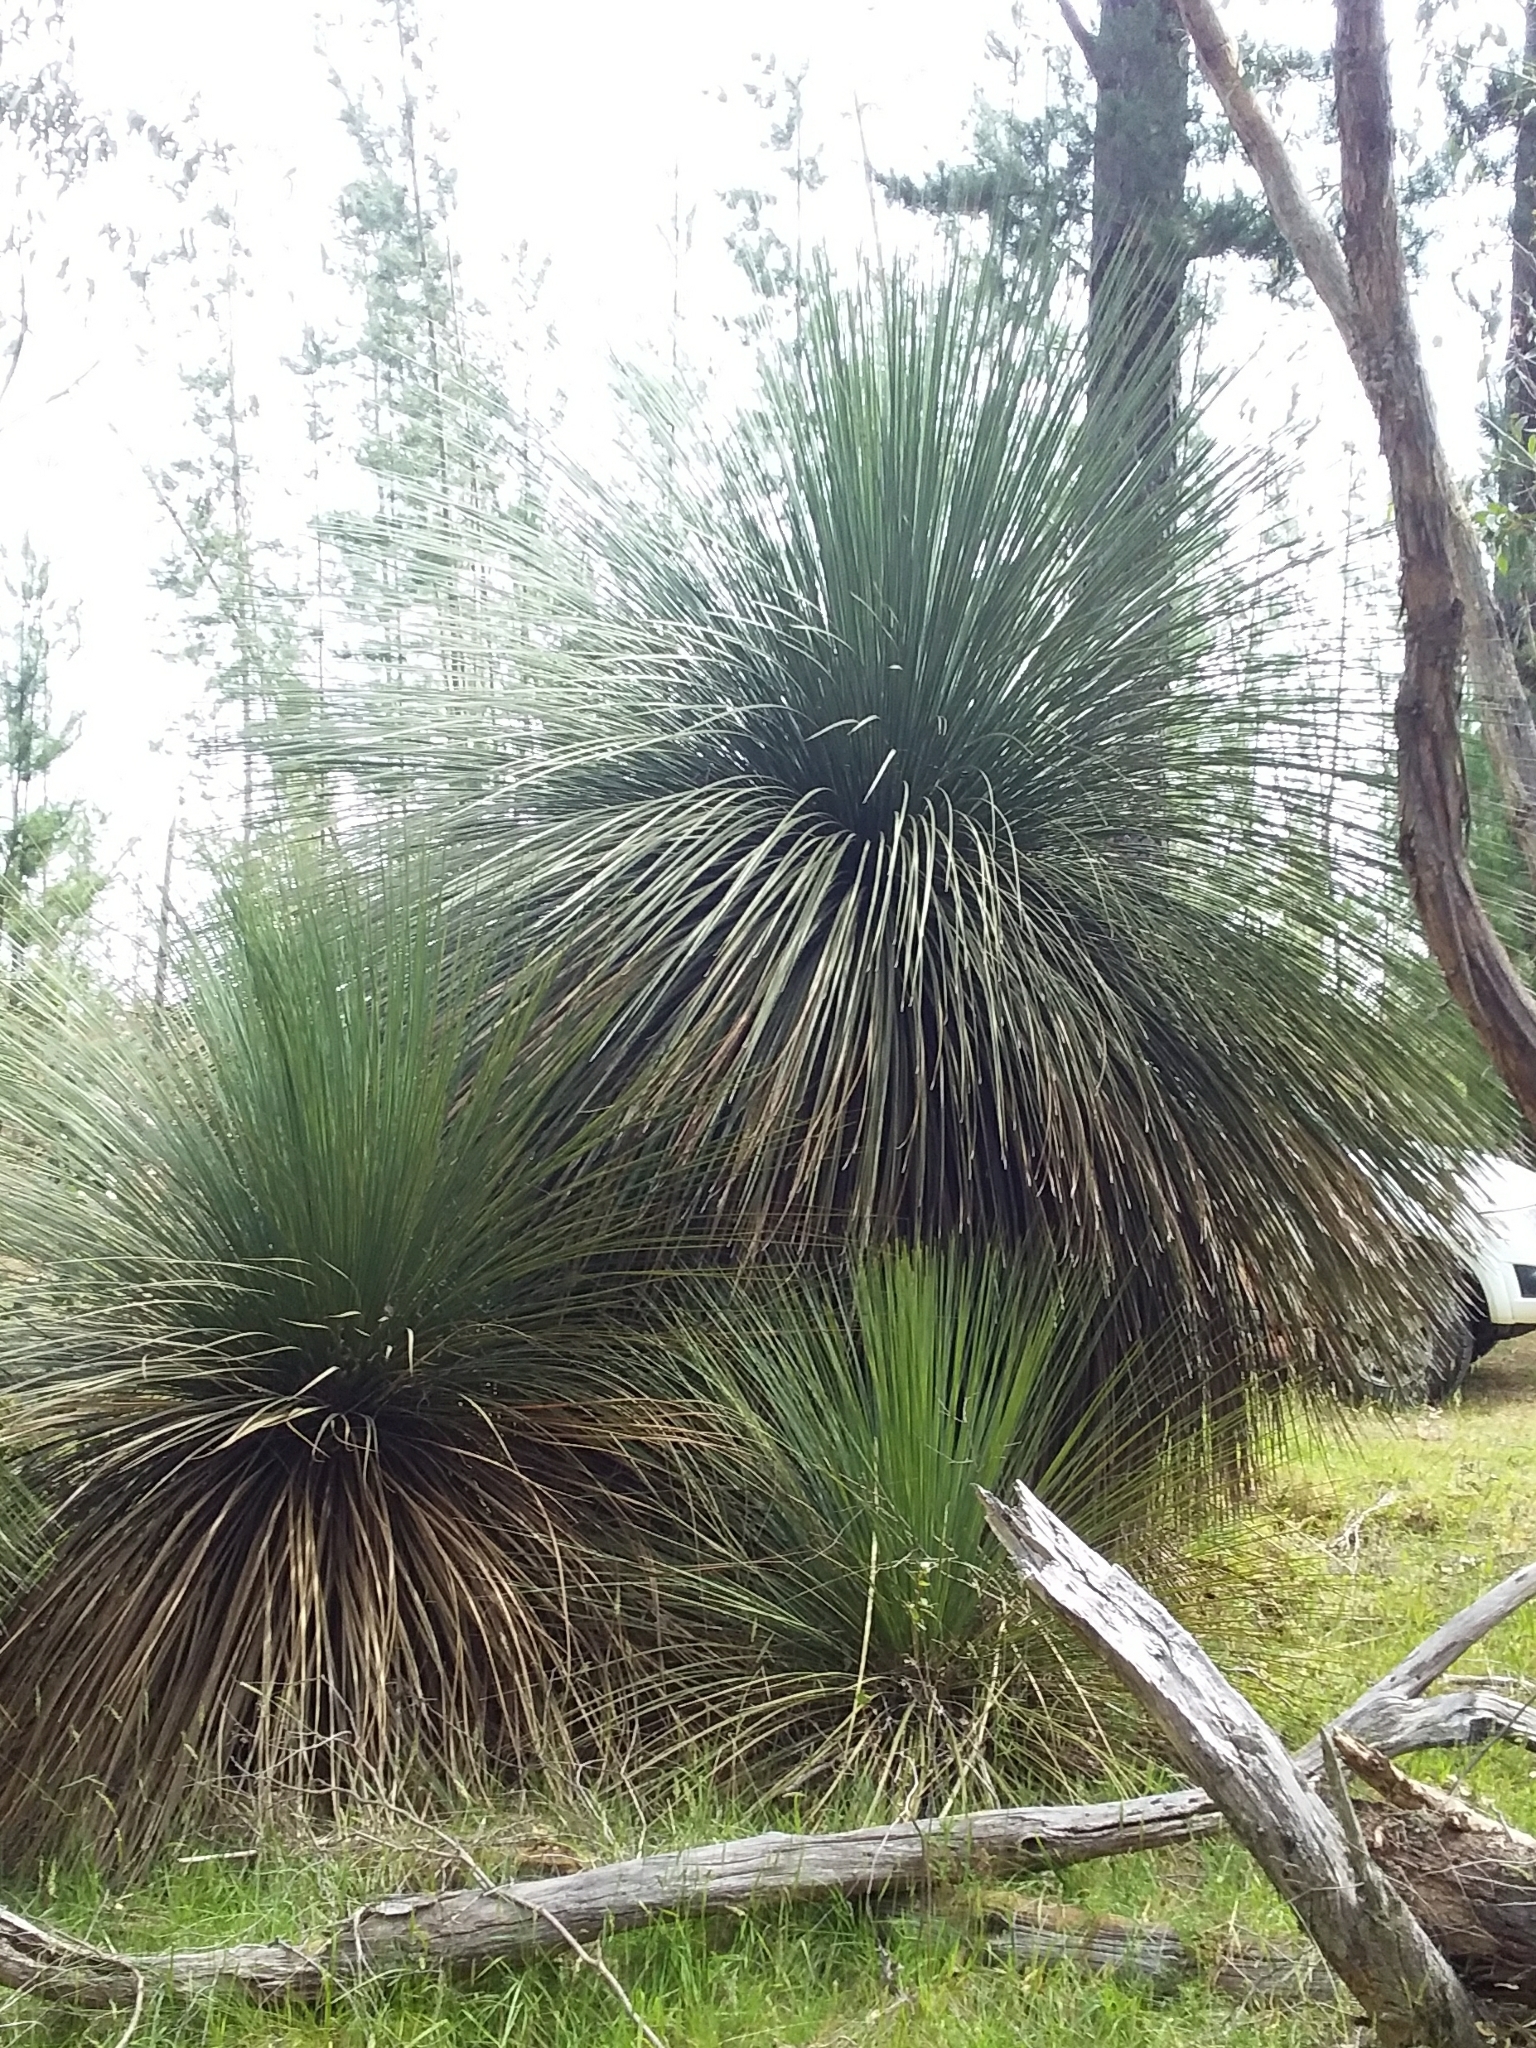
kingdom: Plantae
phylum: Tracheophyta
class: Liliopsida
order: Asparagales
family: Asphodelaceae
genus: Xanthorrhoea
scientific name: Xanthorrhoea semiplana
